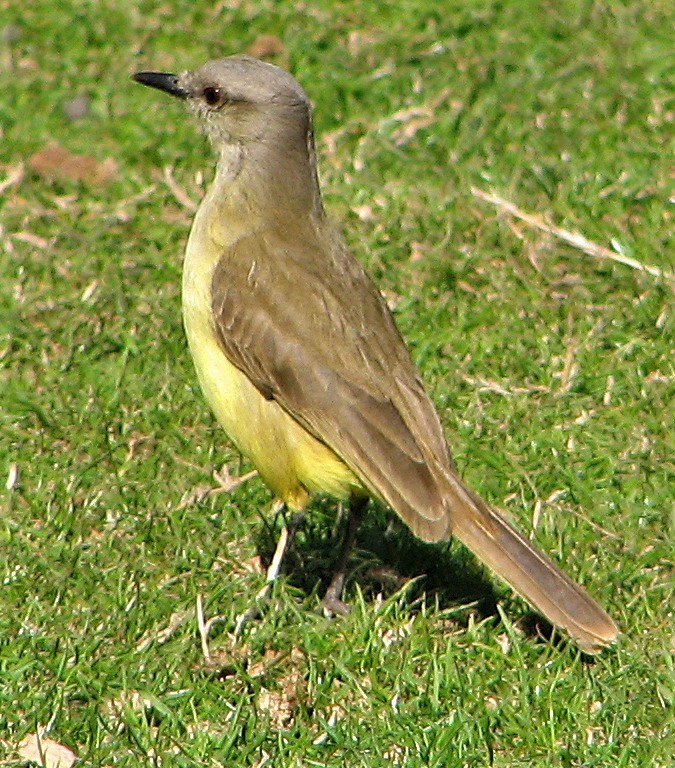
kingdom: Animalia
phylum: Chordata
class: Aves
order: Passeriformes
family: Tyrannidae
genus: Machetornis
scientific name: Machetornis rixosa
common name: Cattle tyrant
